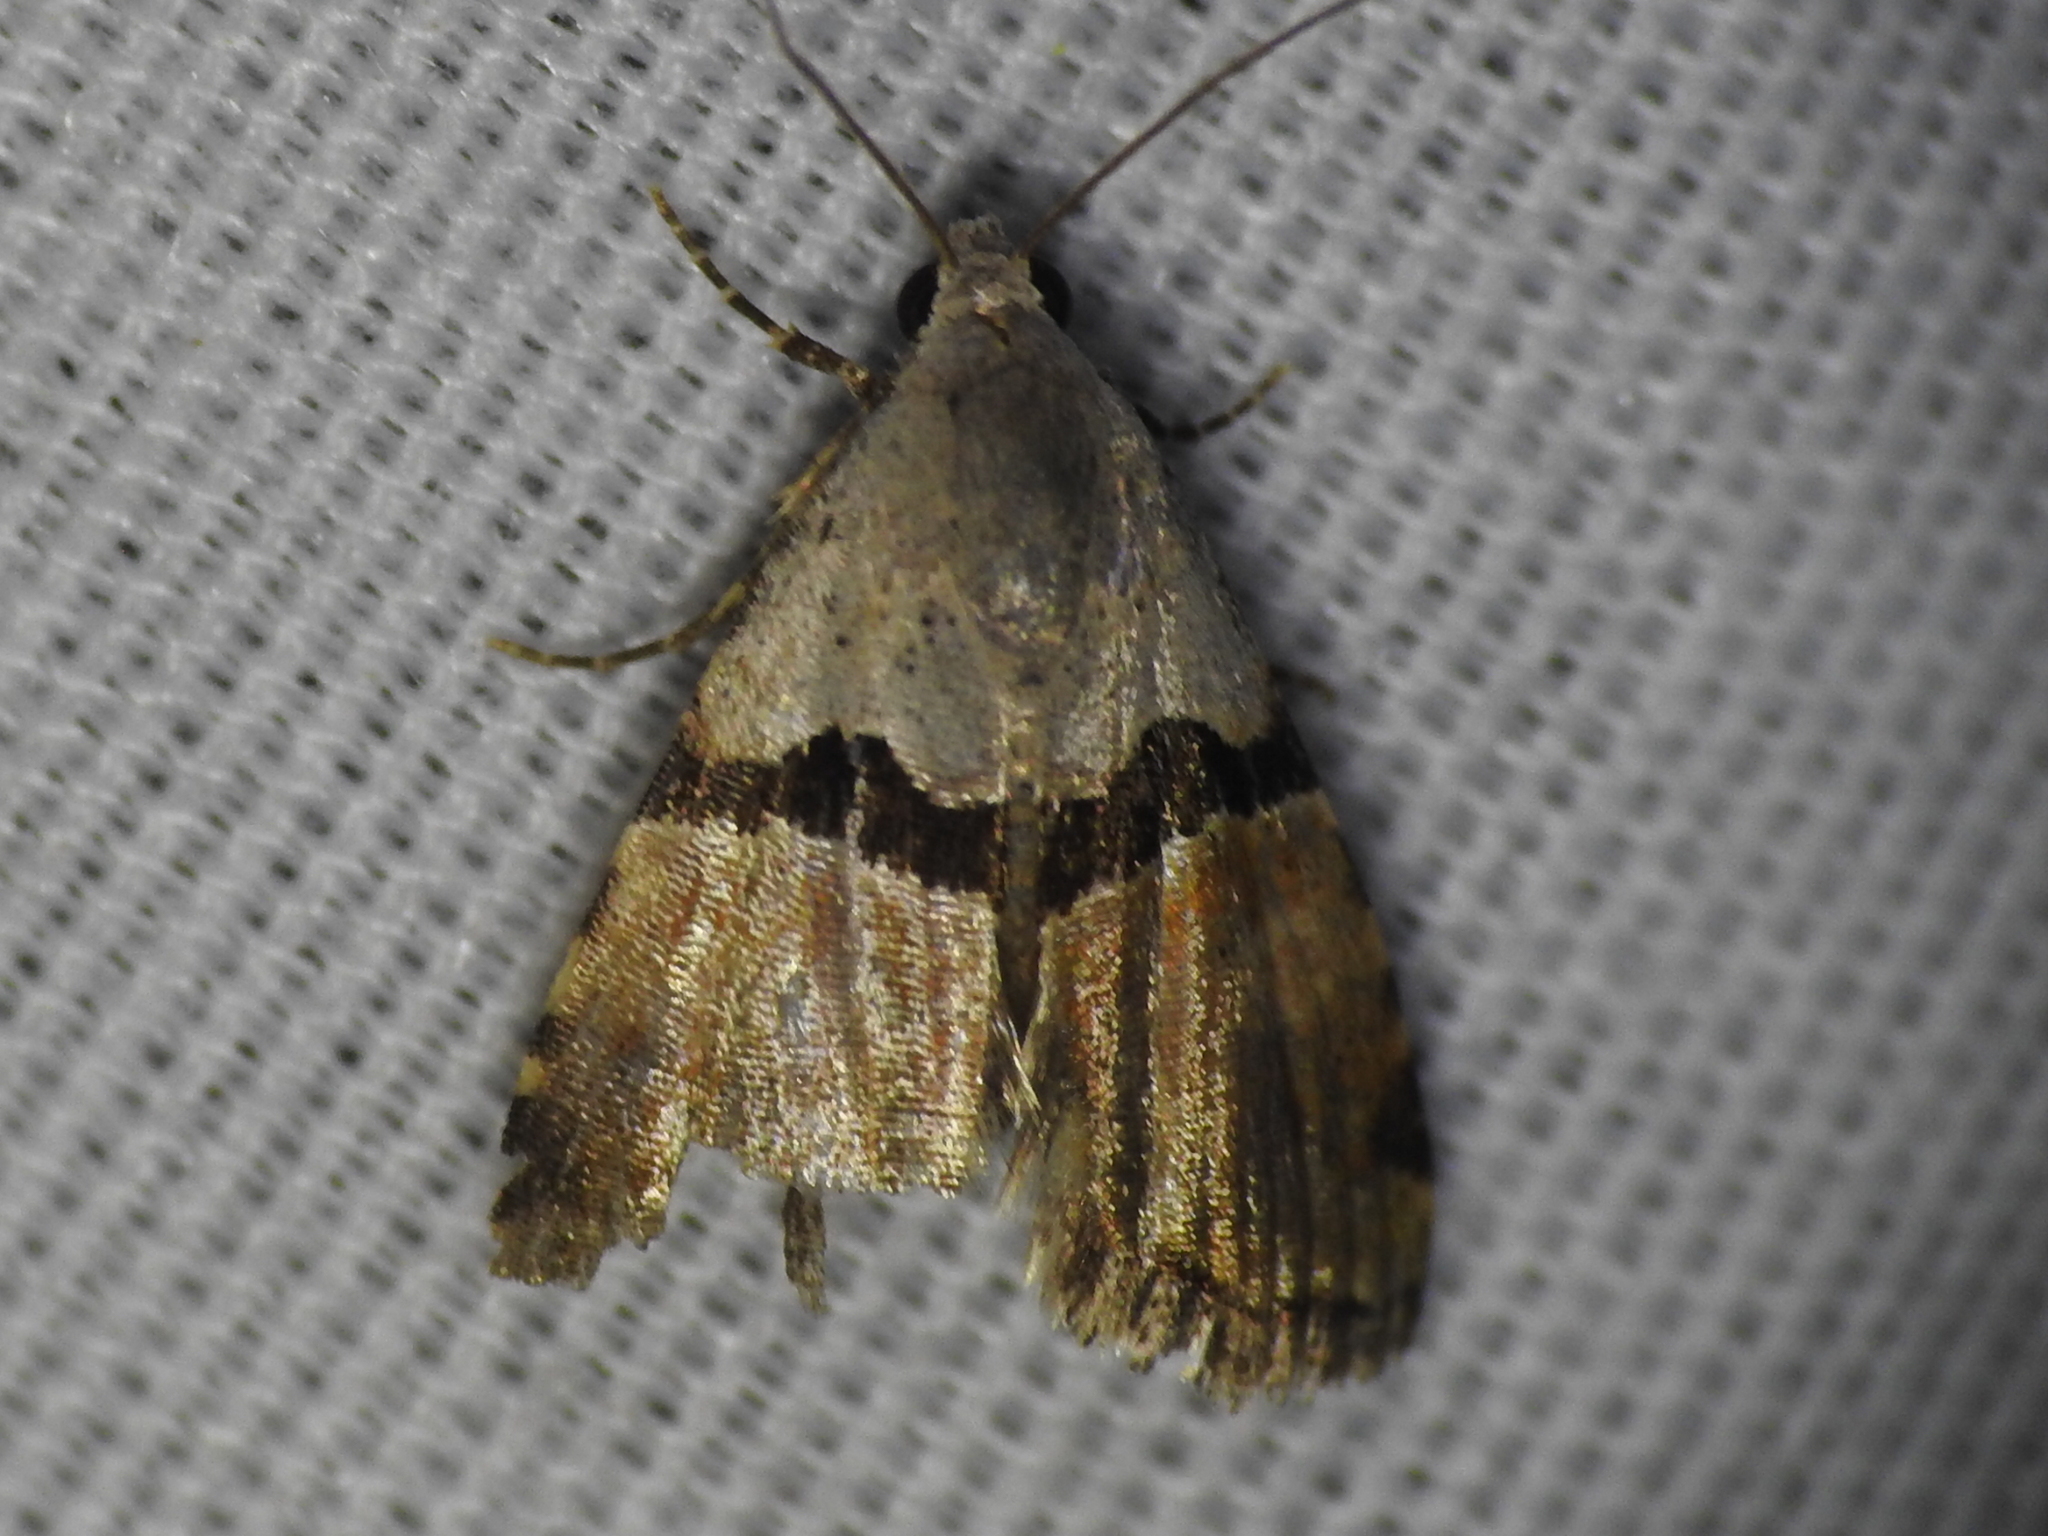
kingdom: Animalia
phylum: Arthropoda
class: Insecta
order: Lepidoptera
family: Noctuidae
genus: Cobubatha
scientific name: Cobubatha orthozona
